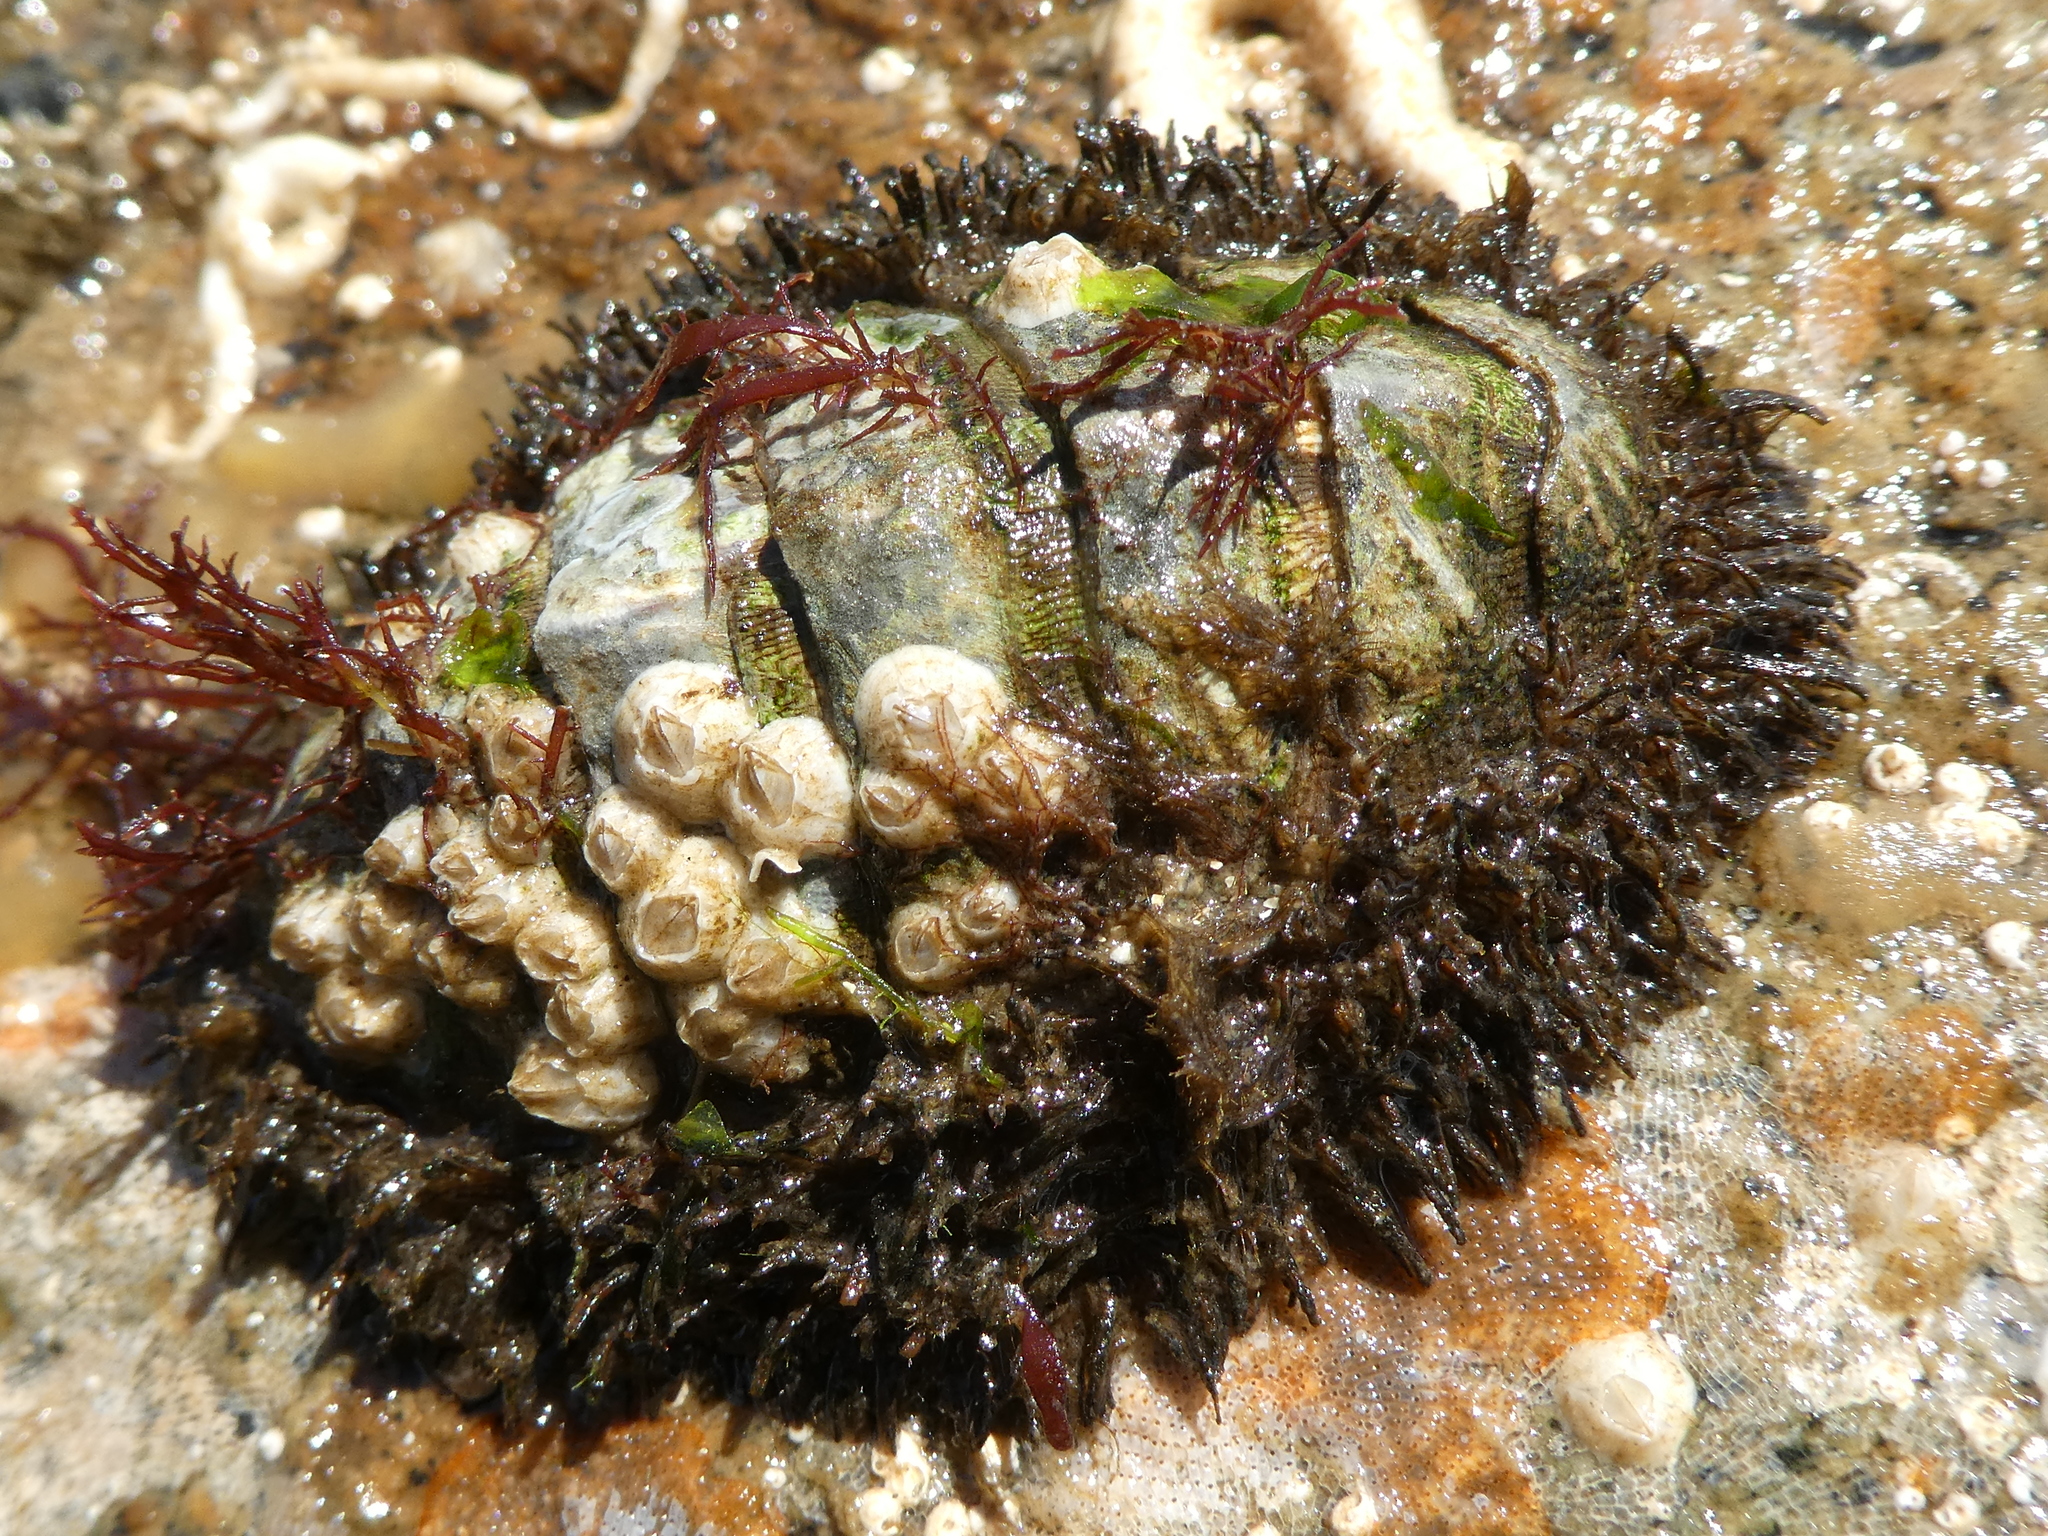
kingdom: Animalia
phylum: Mollusca
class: Polyplacophora
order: Chitonida
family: Mopaliidae
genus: Mopalia
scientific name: Mopalia muscosa
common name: Mossy chiton
